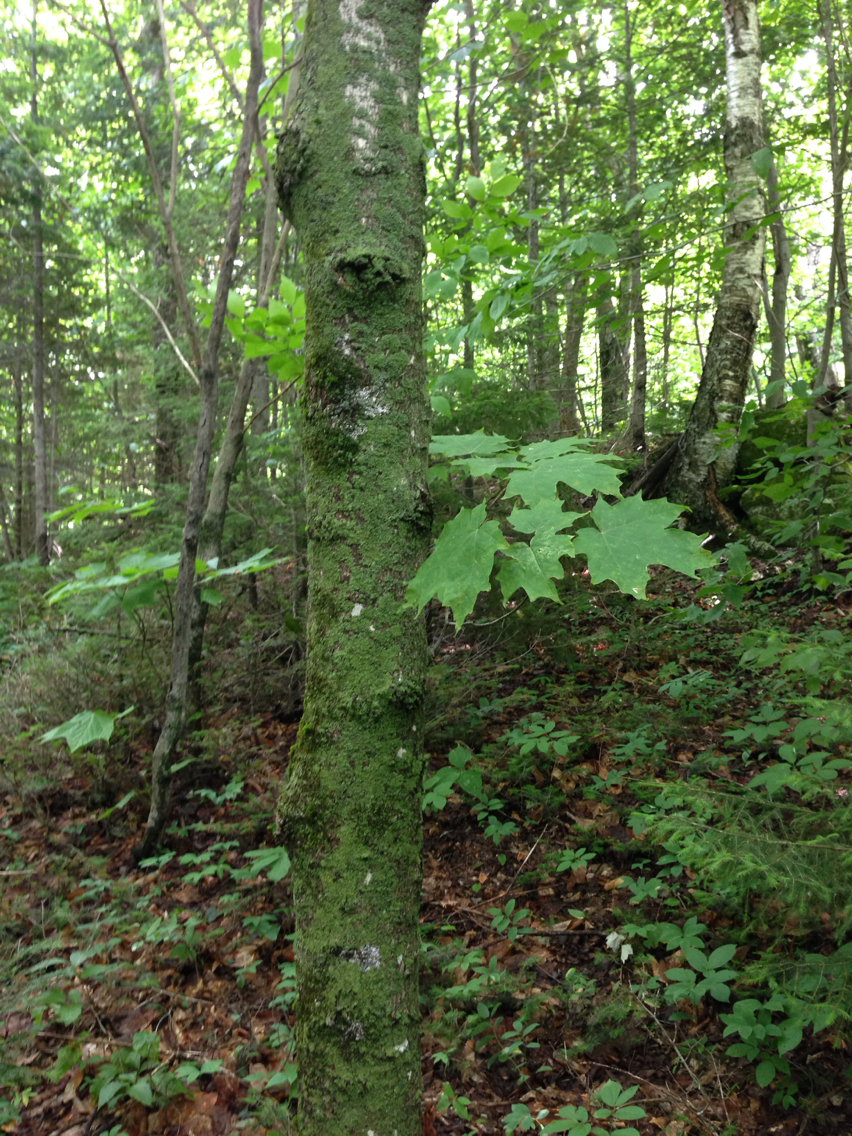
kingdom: Plantae
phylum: Tracheophyta
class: Magnoliopsida
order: Sapindales
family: Sapindaceae
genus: Acer
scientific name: Acer saccharum
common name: Sugar maple
